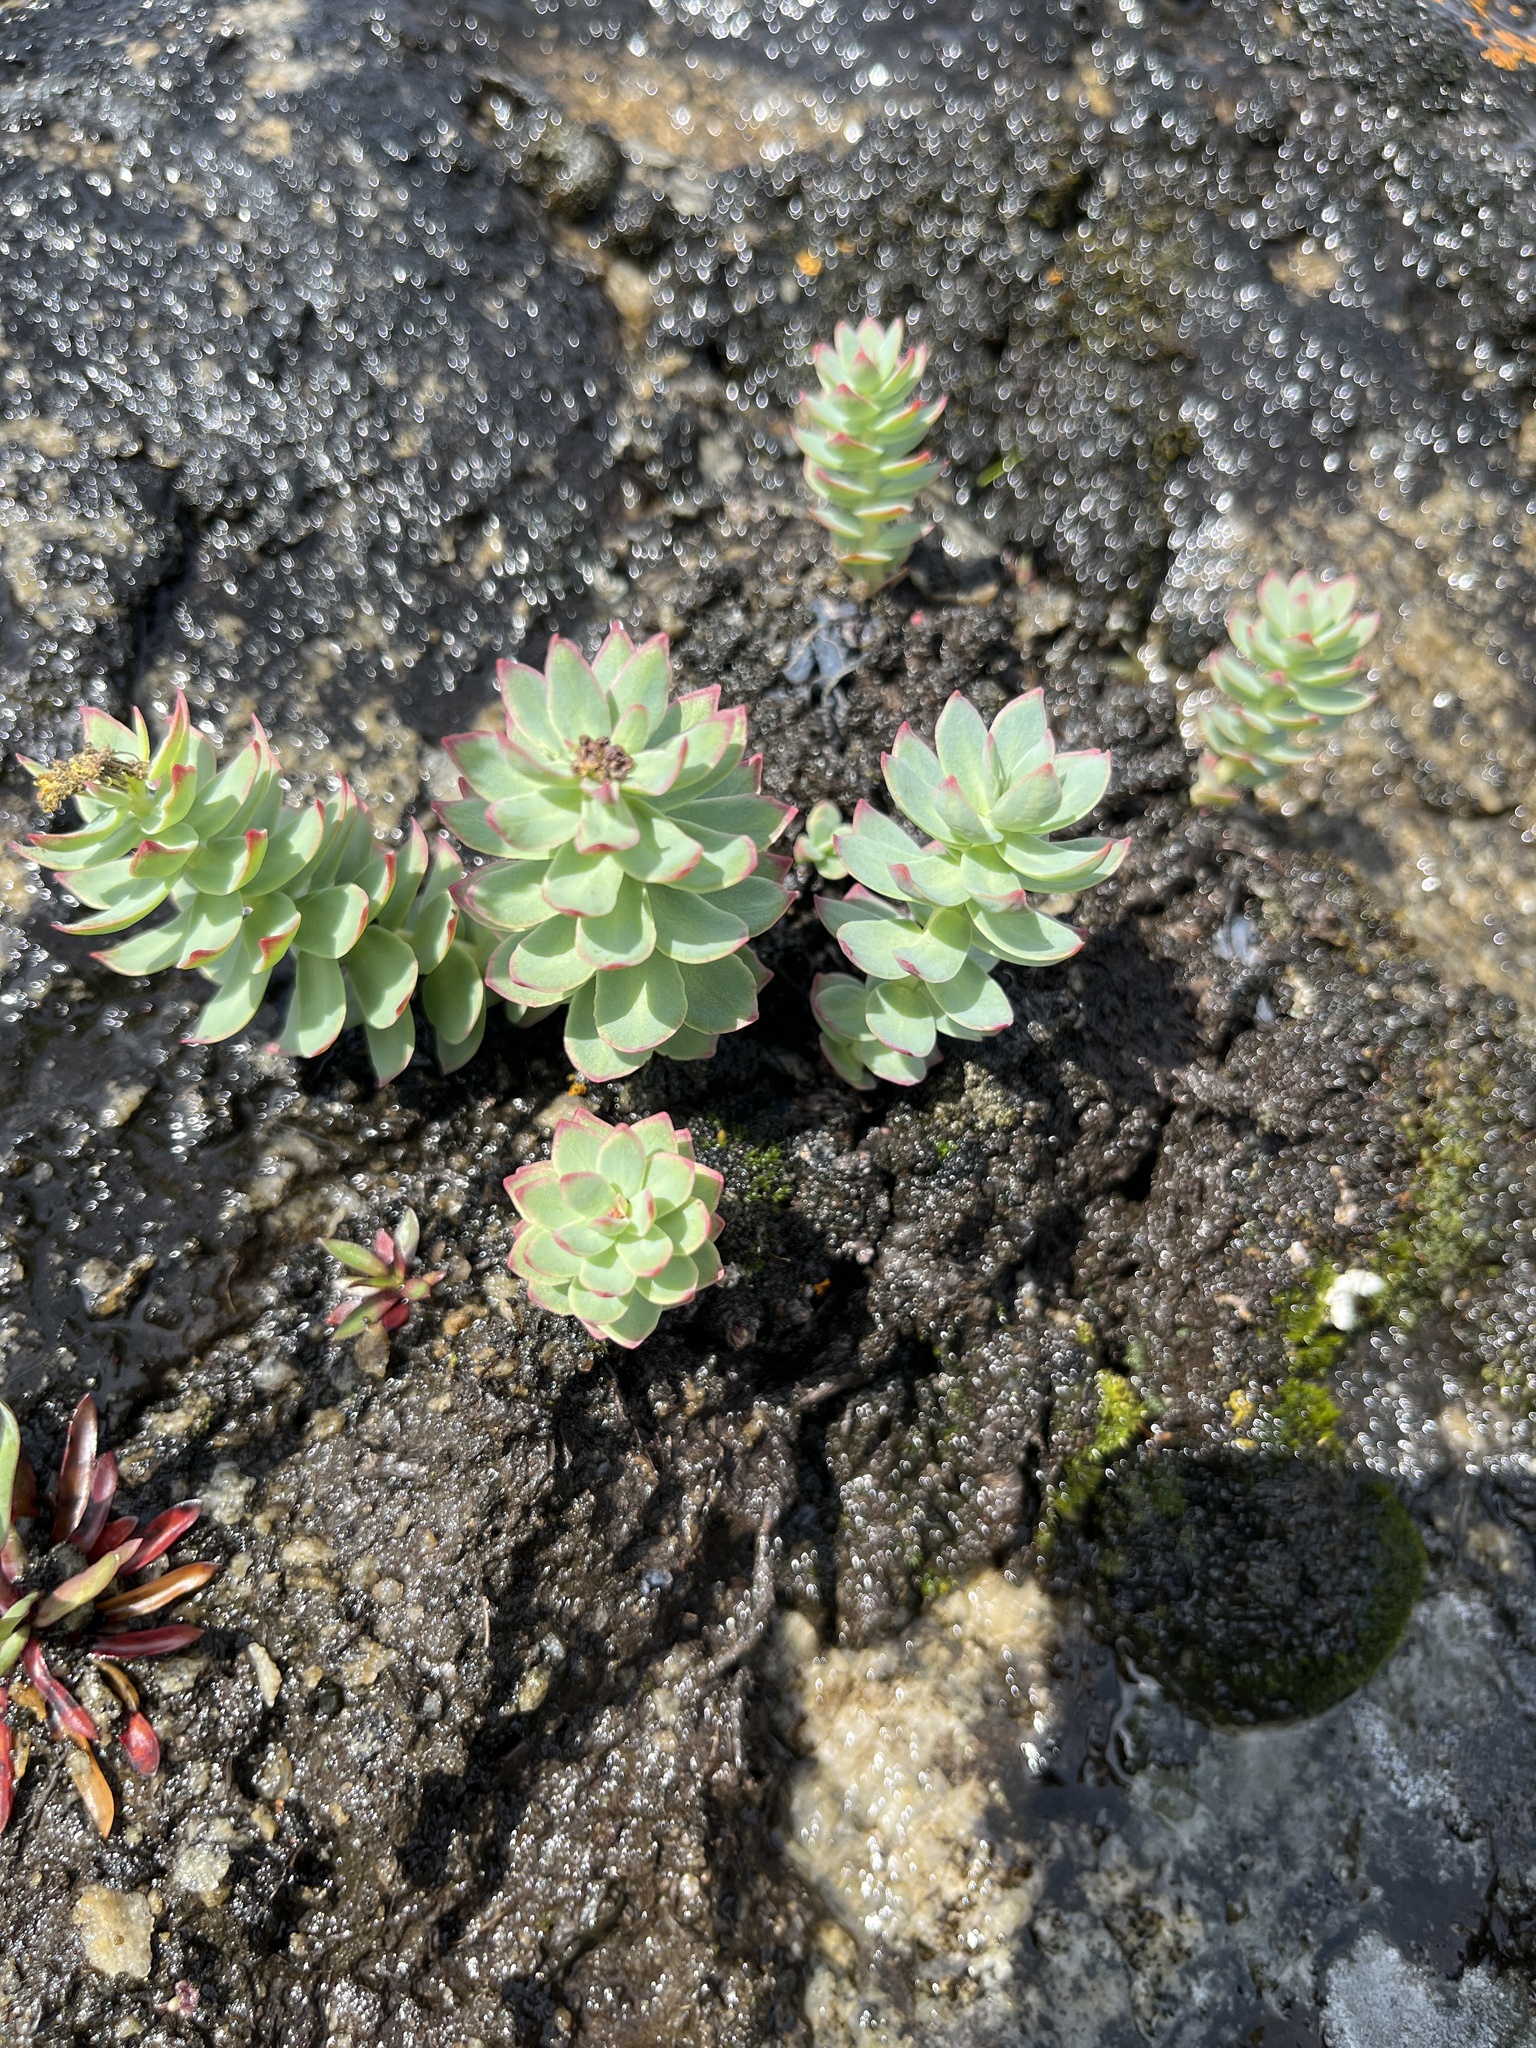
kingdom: Plantae
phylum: Tracheophyta
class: Magnoliopsida
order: Saxifragales
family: Crassulaceae
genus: Rhodiola
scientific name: Rhodiola rosea
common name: Roseroot
